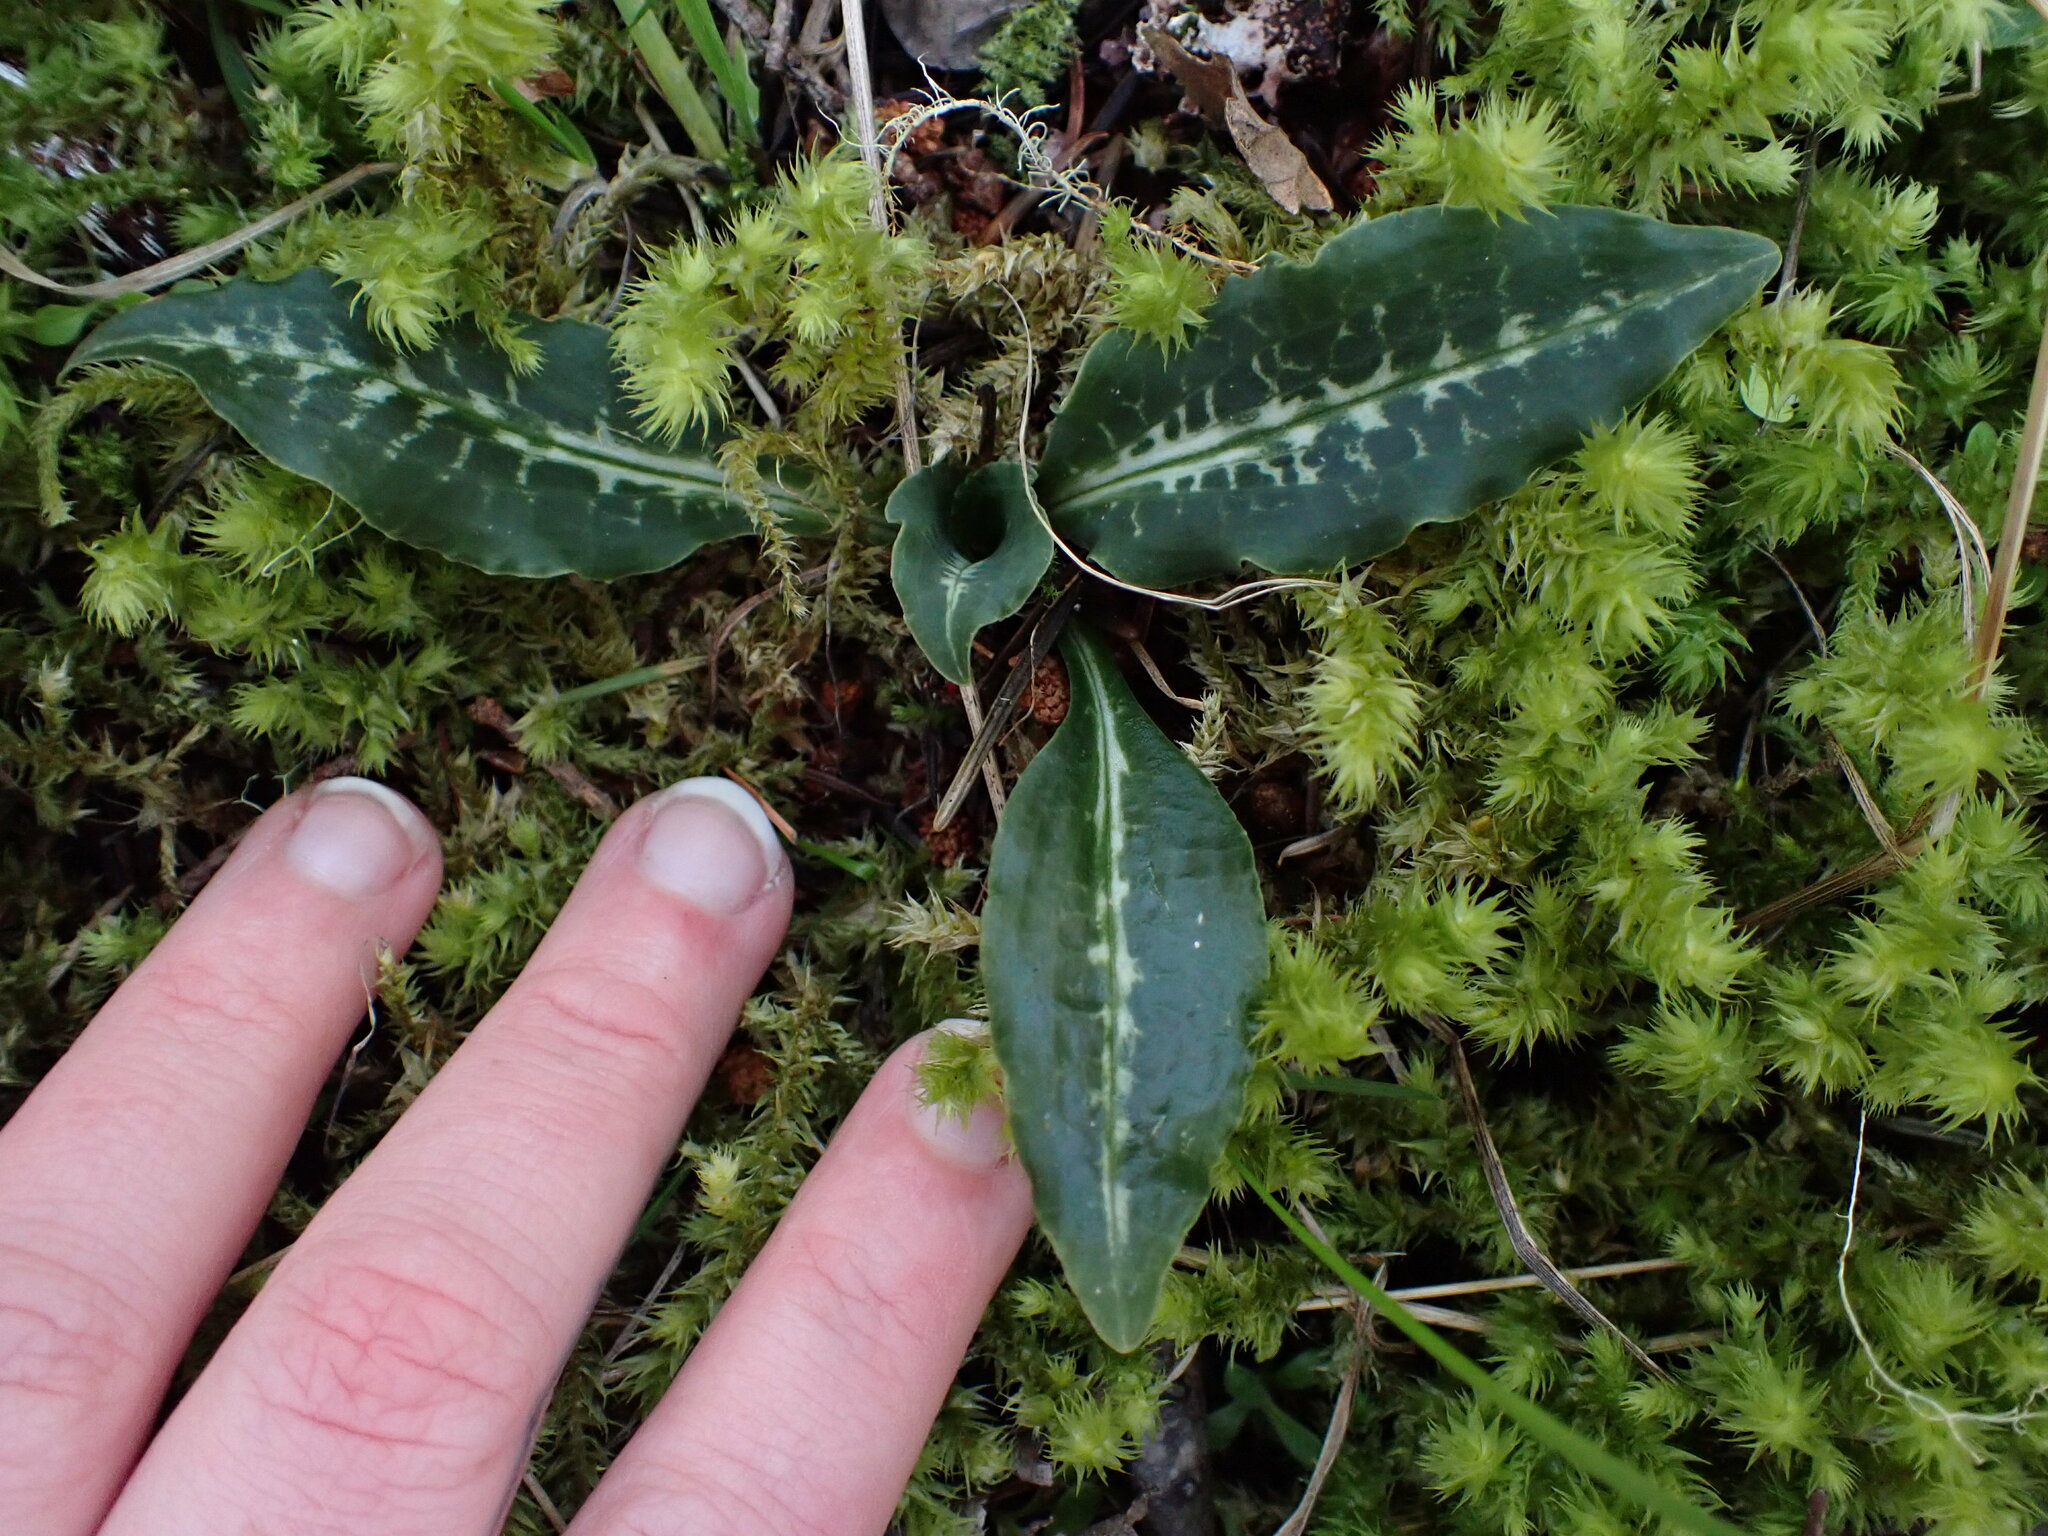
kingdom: Plantae
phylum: Tracheophyta
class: Liliopsida
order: Asparagales
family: Orchidaceae
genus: Goodyera
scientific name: Goodyera oblongifolia
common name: Giant rattlesnake-plantain
